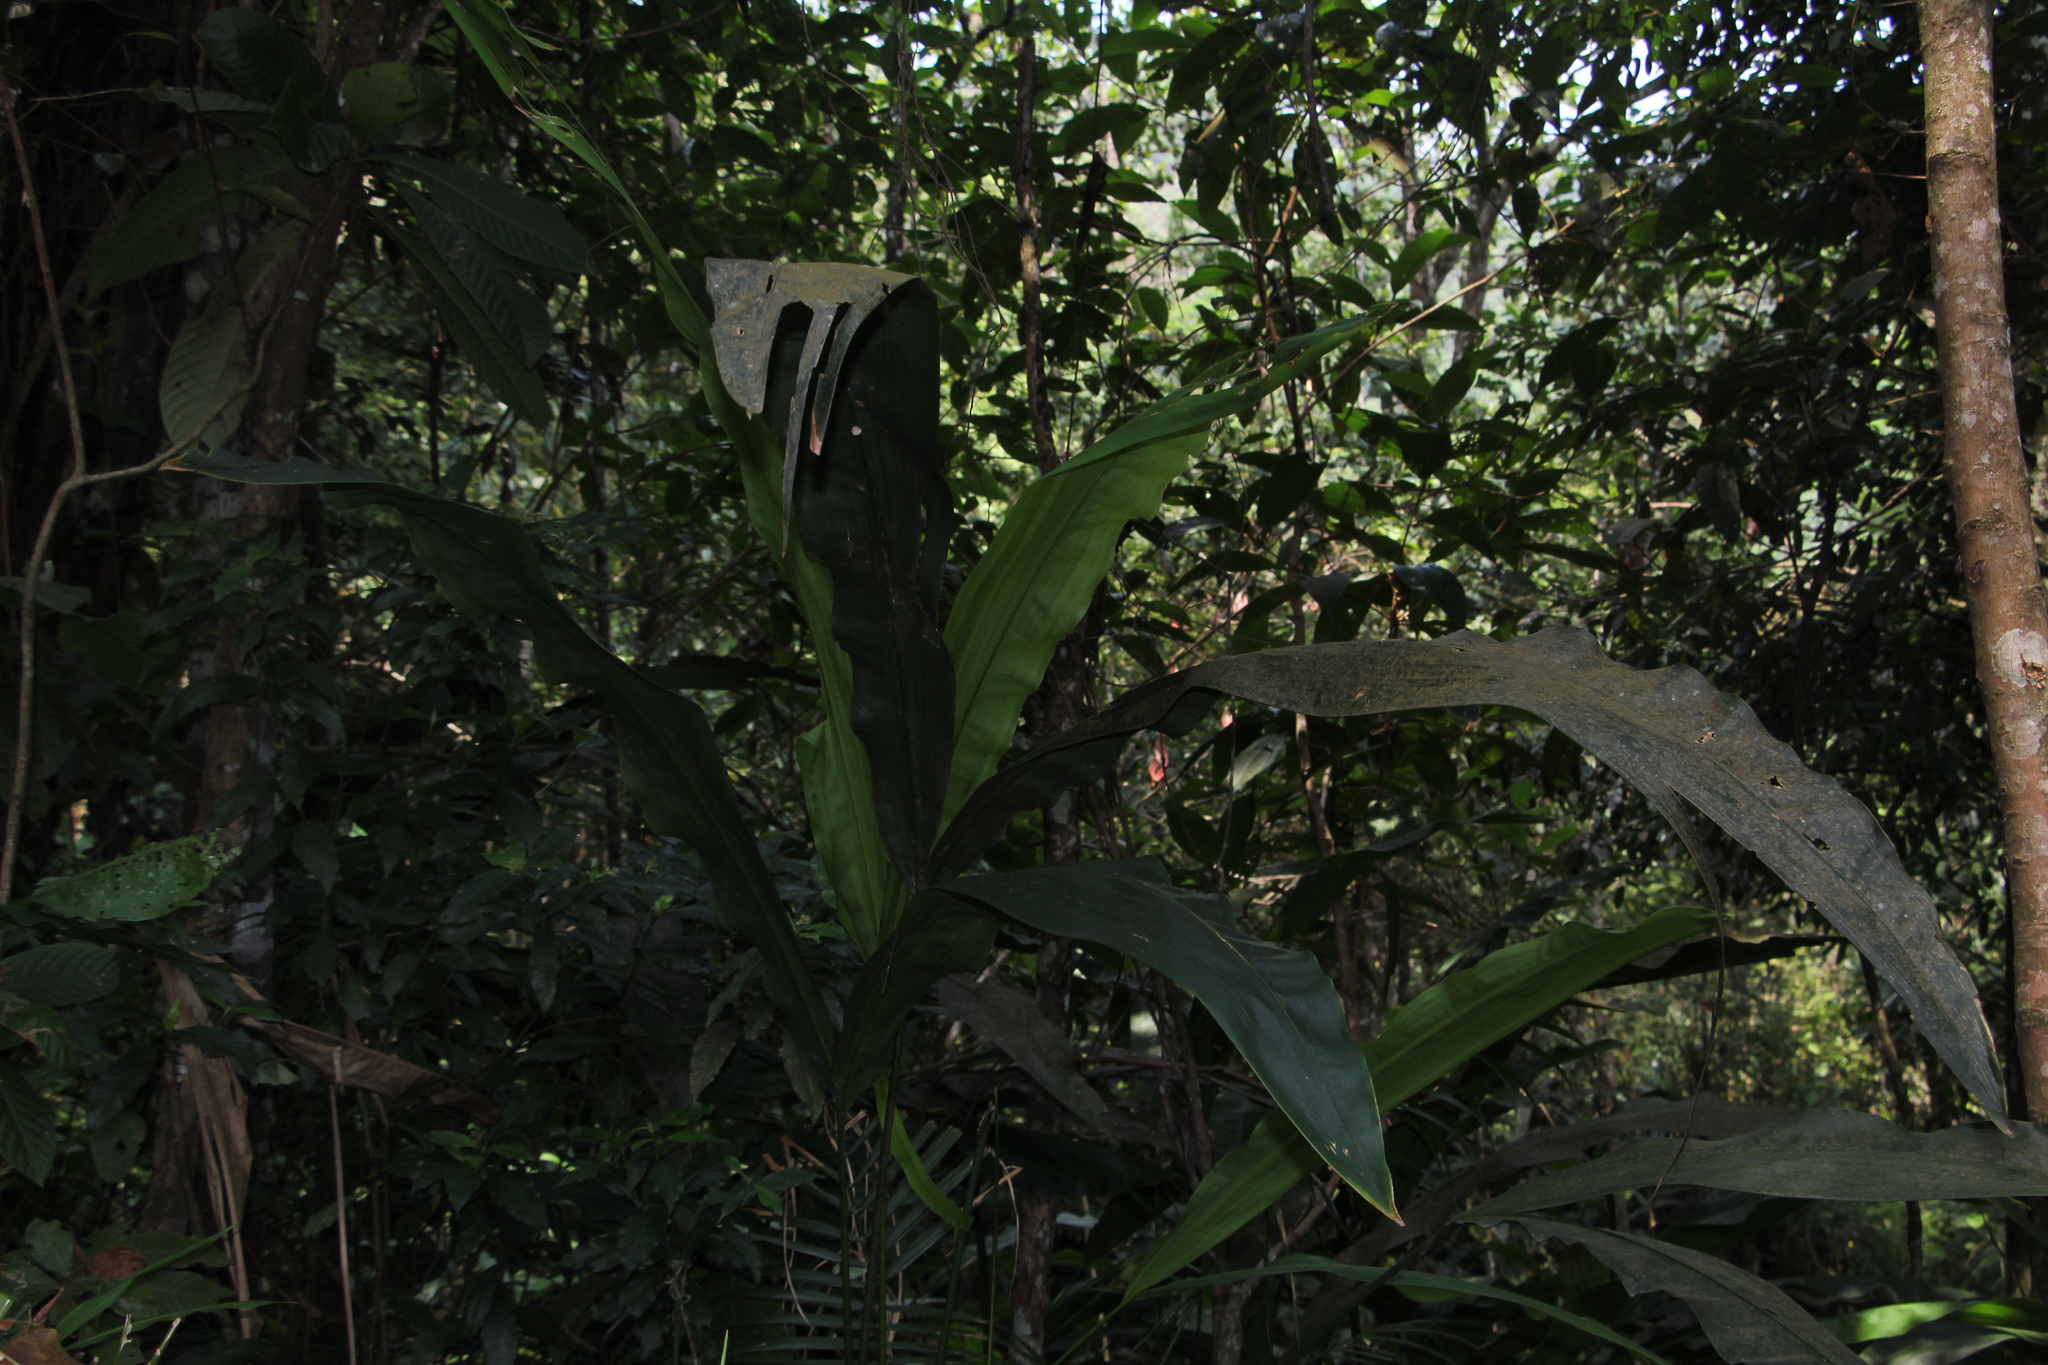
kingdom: Plantae
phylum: Tracheophyta
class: Liliopsida
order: Pandanales
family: Cyclanthaceae
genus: Cyclanthus
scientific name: Cyclanthus bipartitus
